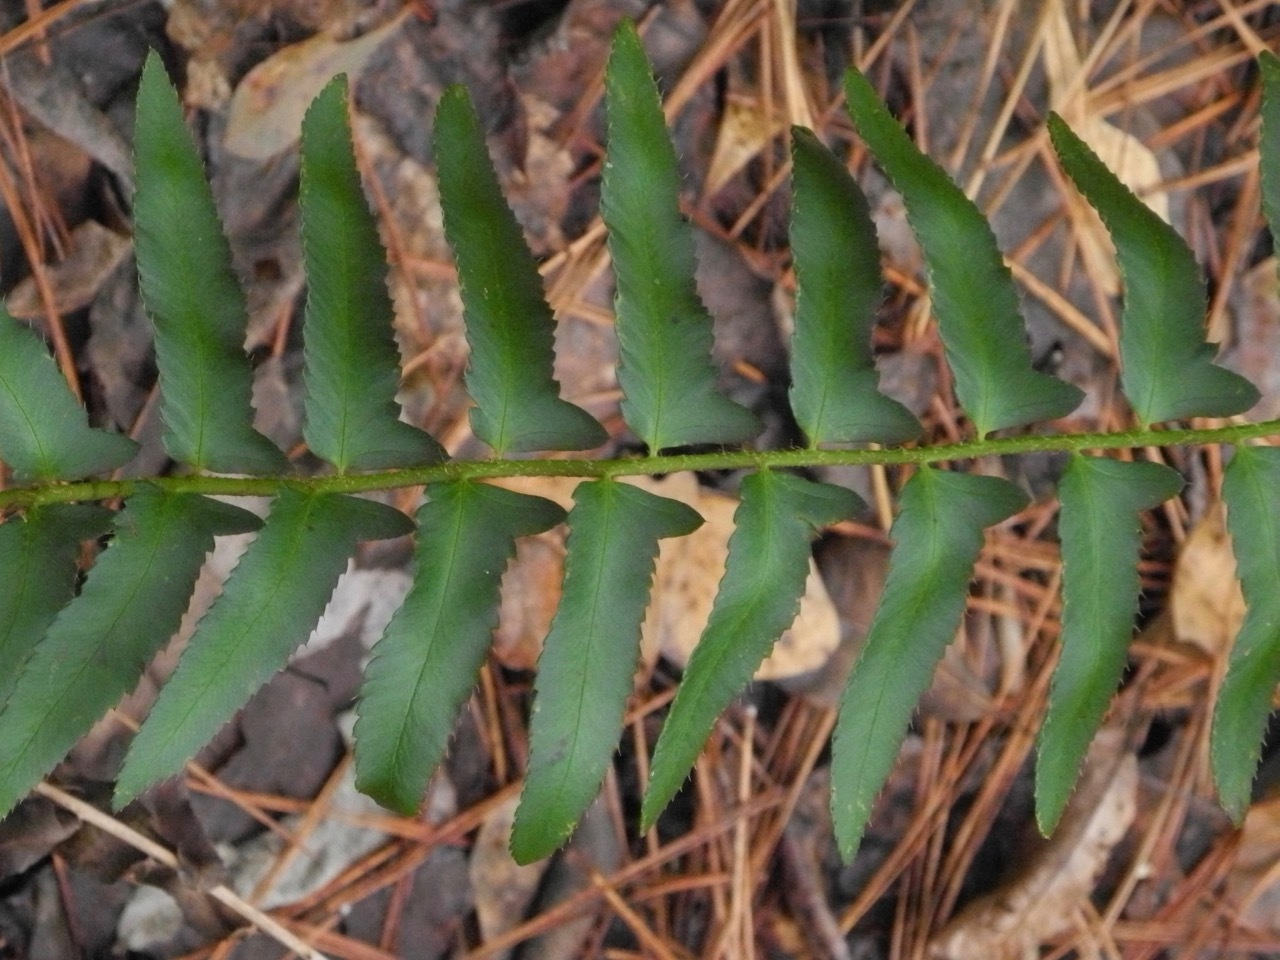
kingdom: Plantae
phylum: Tracheophyta
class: Polypodiopsida
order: Polypodiales
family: Dryopteridaceae
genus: Polystichum
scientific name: Polystichum acrostichoides
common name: Christmas fern
